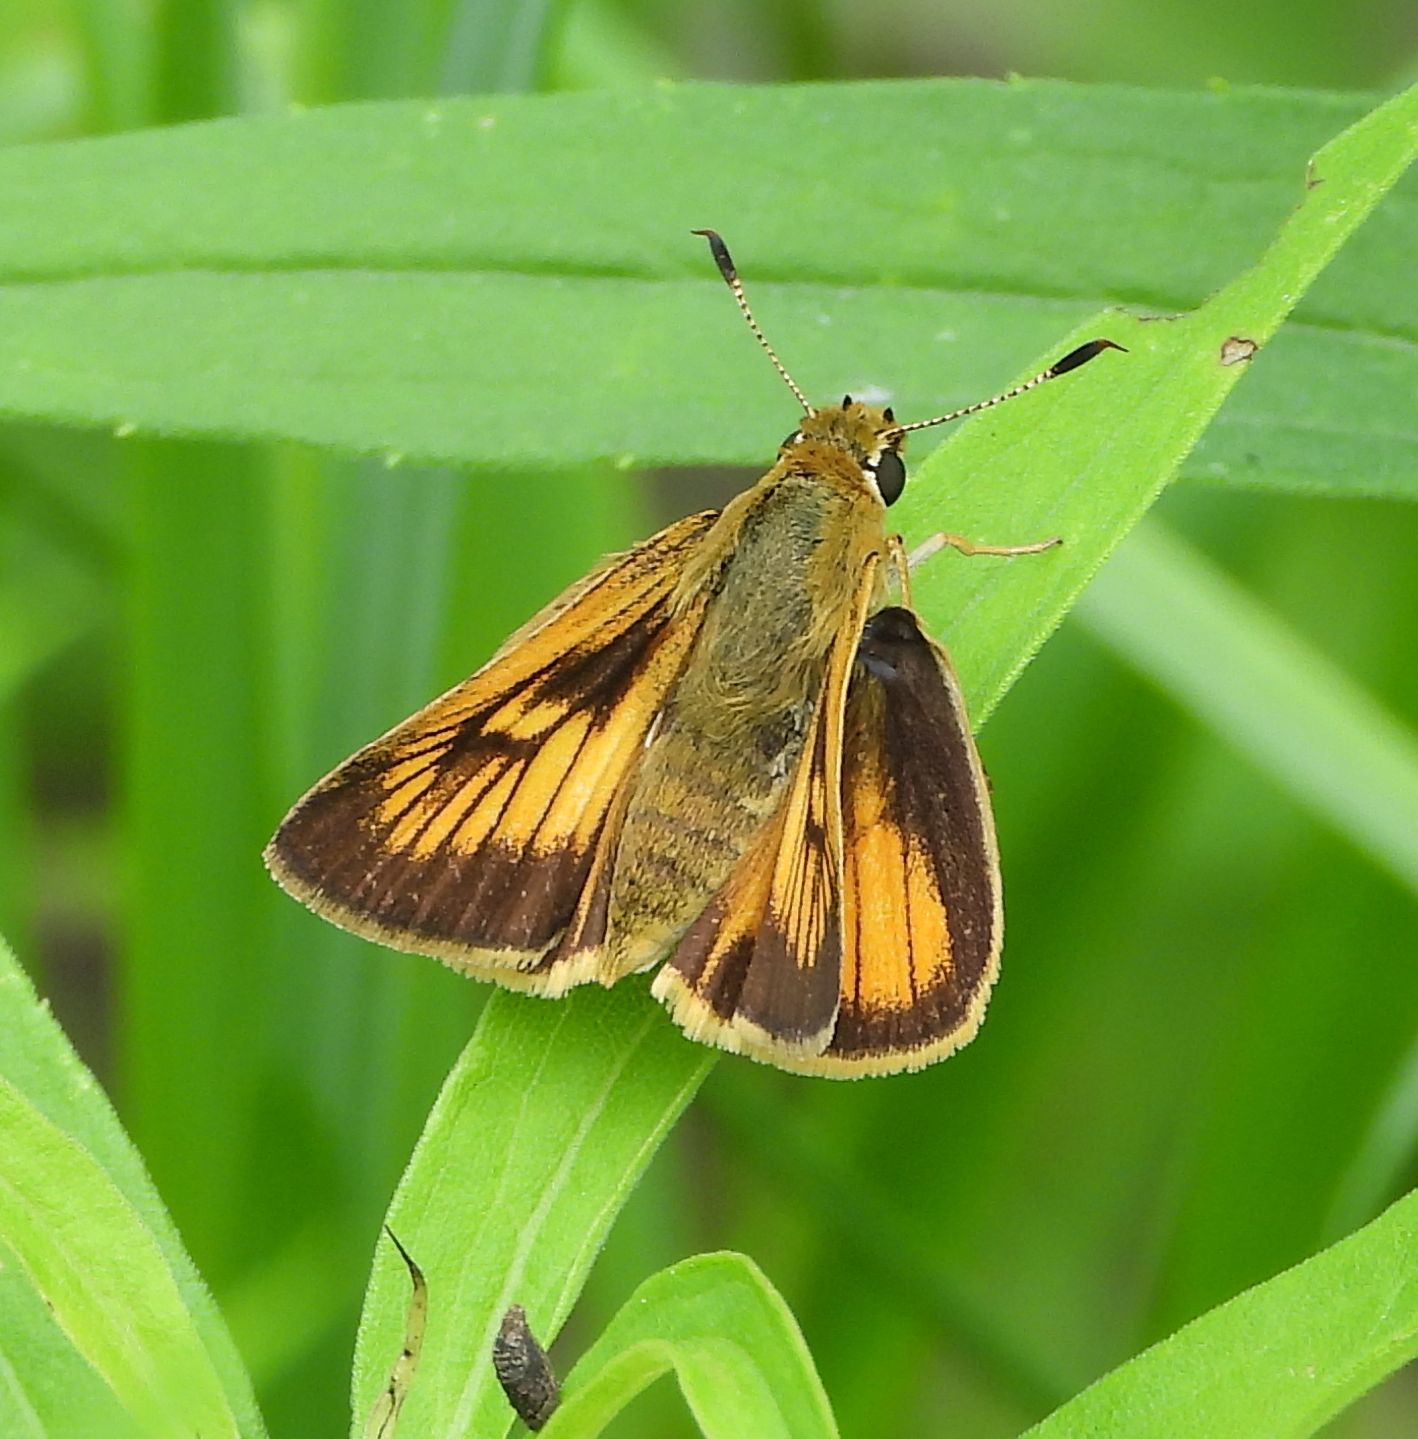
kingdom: Animalia
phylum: Arthropoda
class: Insecta
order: Lepidoptera
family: Hesperiidae
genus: Atrytone
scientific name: Atrytone delaware
